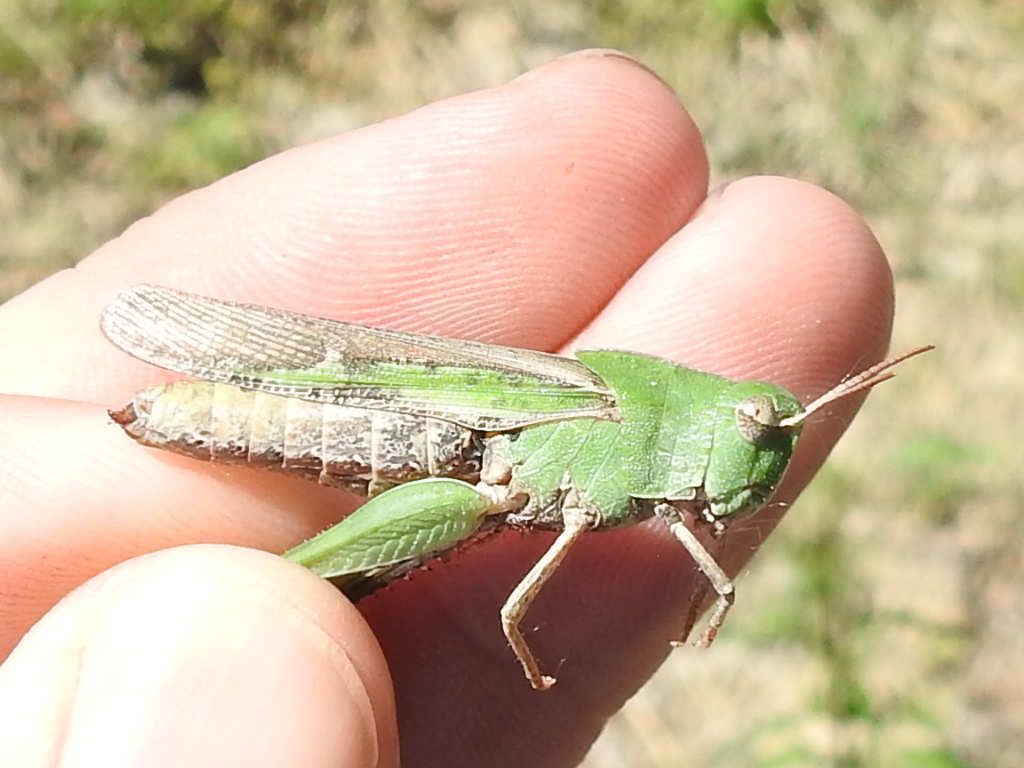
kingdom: Animalia
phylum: Arthropoda
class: Insecta
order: Orthoptera
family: Acrididae
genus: Chortophaga
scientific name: Chortophaga viridifasciata
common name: Green-striped grasshopper
